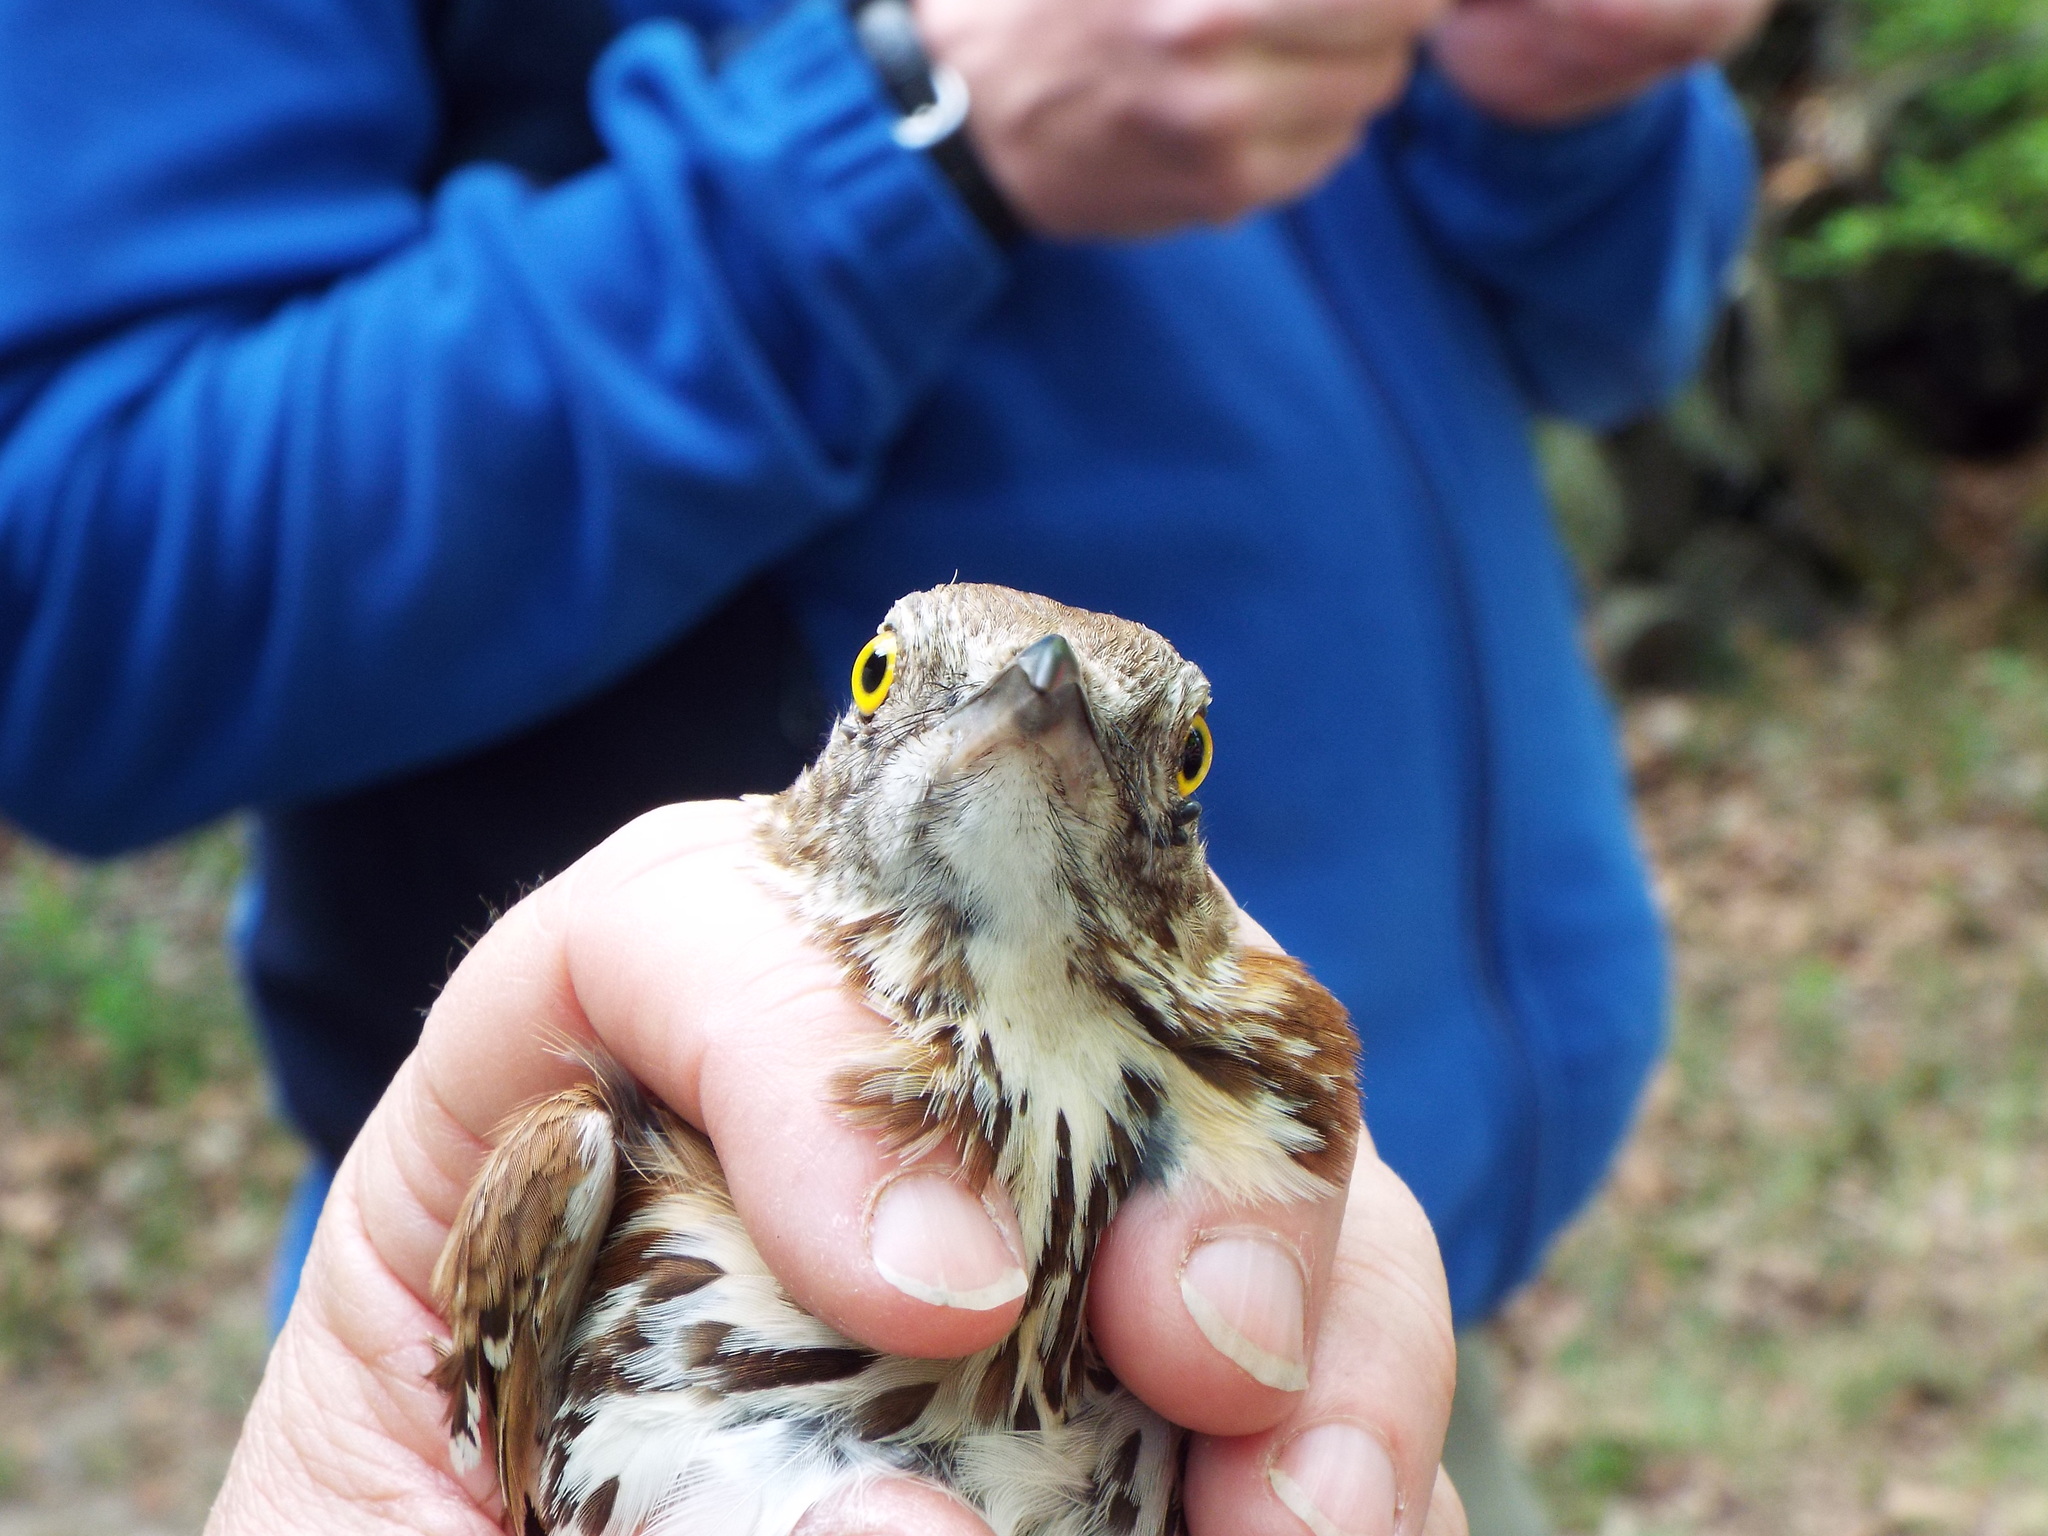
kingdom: Animalia
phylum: Chordata
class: Aves
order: Passeriformes
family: Mimidae
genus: Toxostoma
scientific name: Toxostoma rufum
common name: Brown thrasher
